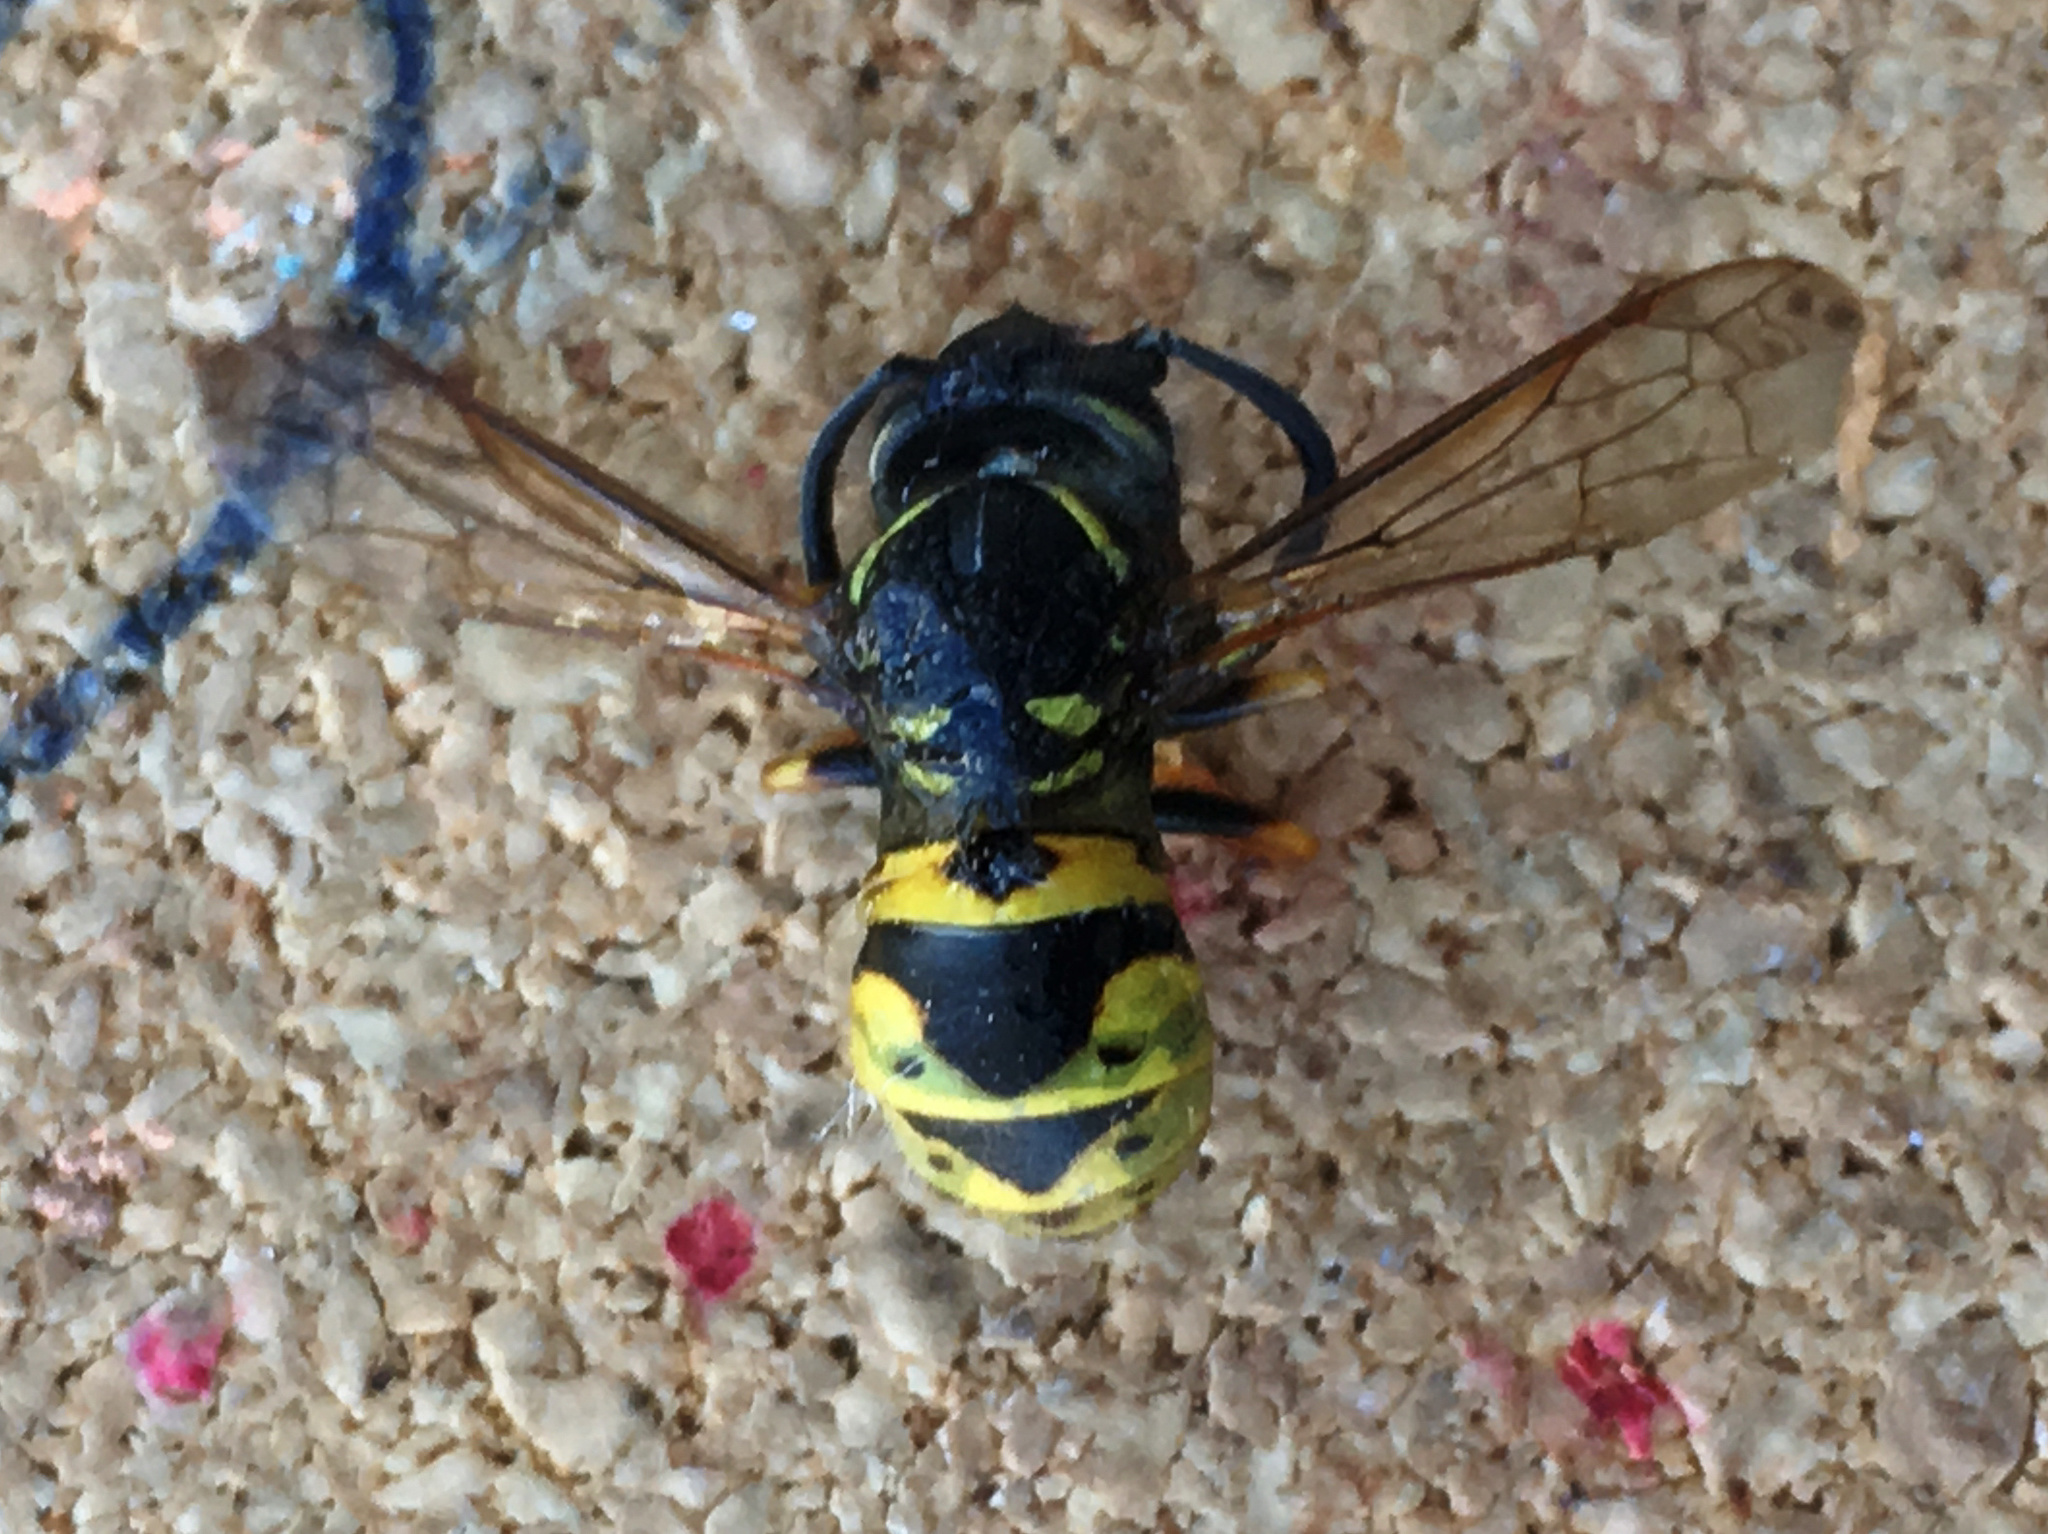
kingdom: Animalia
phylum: Arthropoda
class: Insecta
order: Hymenoptera
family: Vespidae
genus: Vespula
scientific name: Vespula vulgaris
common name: Common wasp
